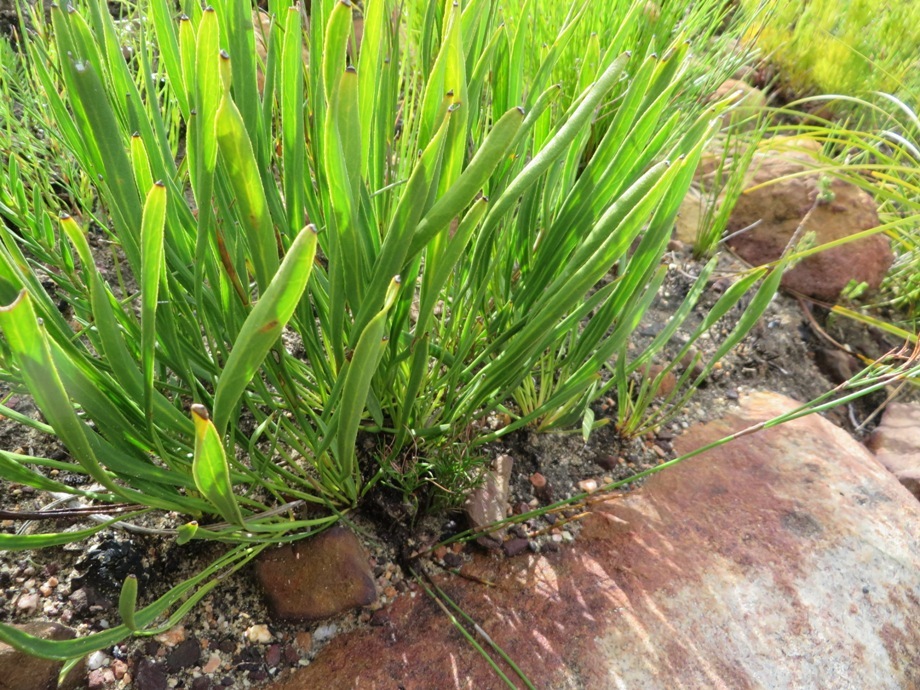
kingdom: Plantae
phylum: Tracheophyta
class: Magnoliopsida
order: Proteales
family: Proteaceae
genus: Protea
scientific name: Protea scabra
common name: Sandpaper-leaf sugarbush
